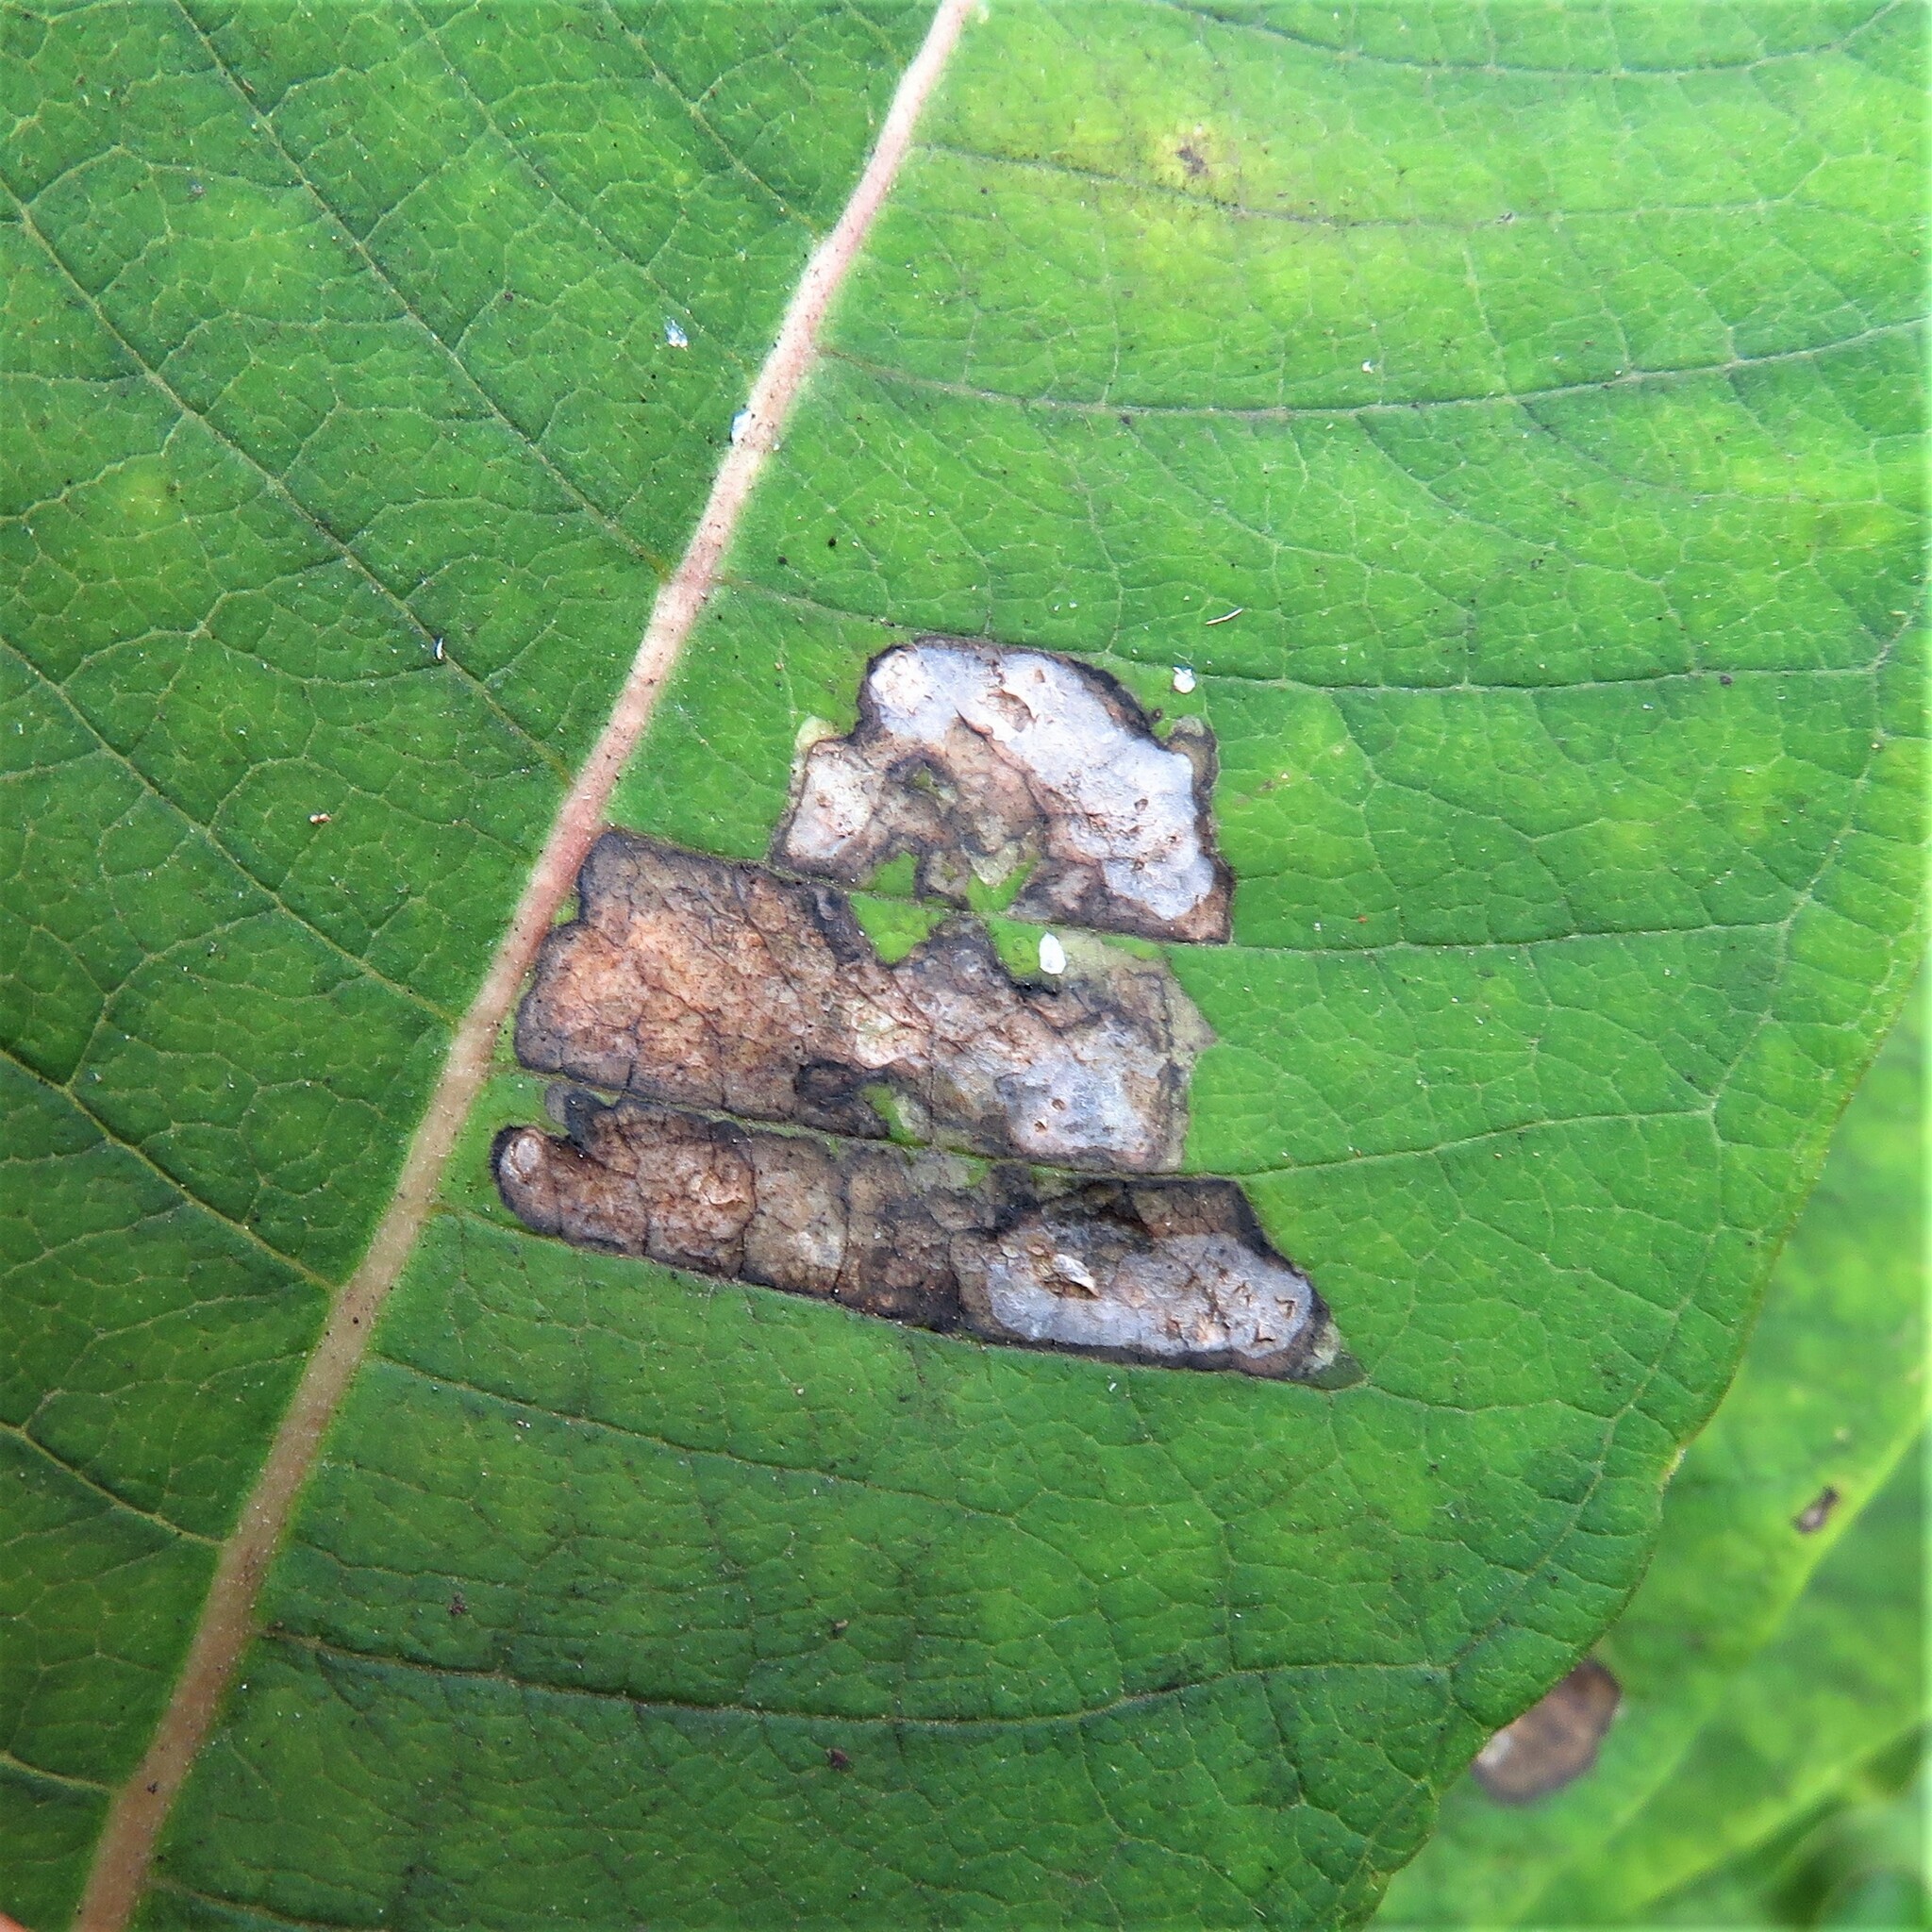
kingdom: Animalia
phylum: Arthropoda
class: Insecta
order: Diptera
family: Agromyzidae
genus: Liriomyza
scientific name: Liriomyza asclepiadis
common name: Milkweed leaf-miner fly
